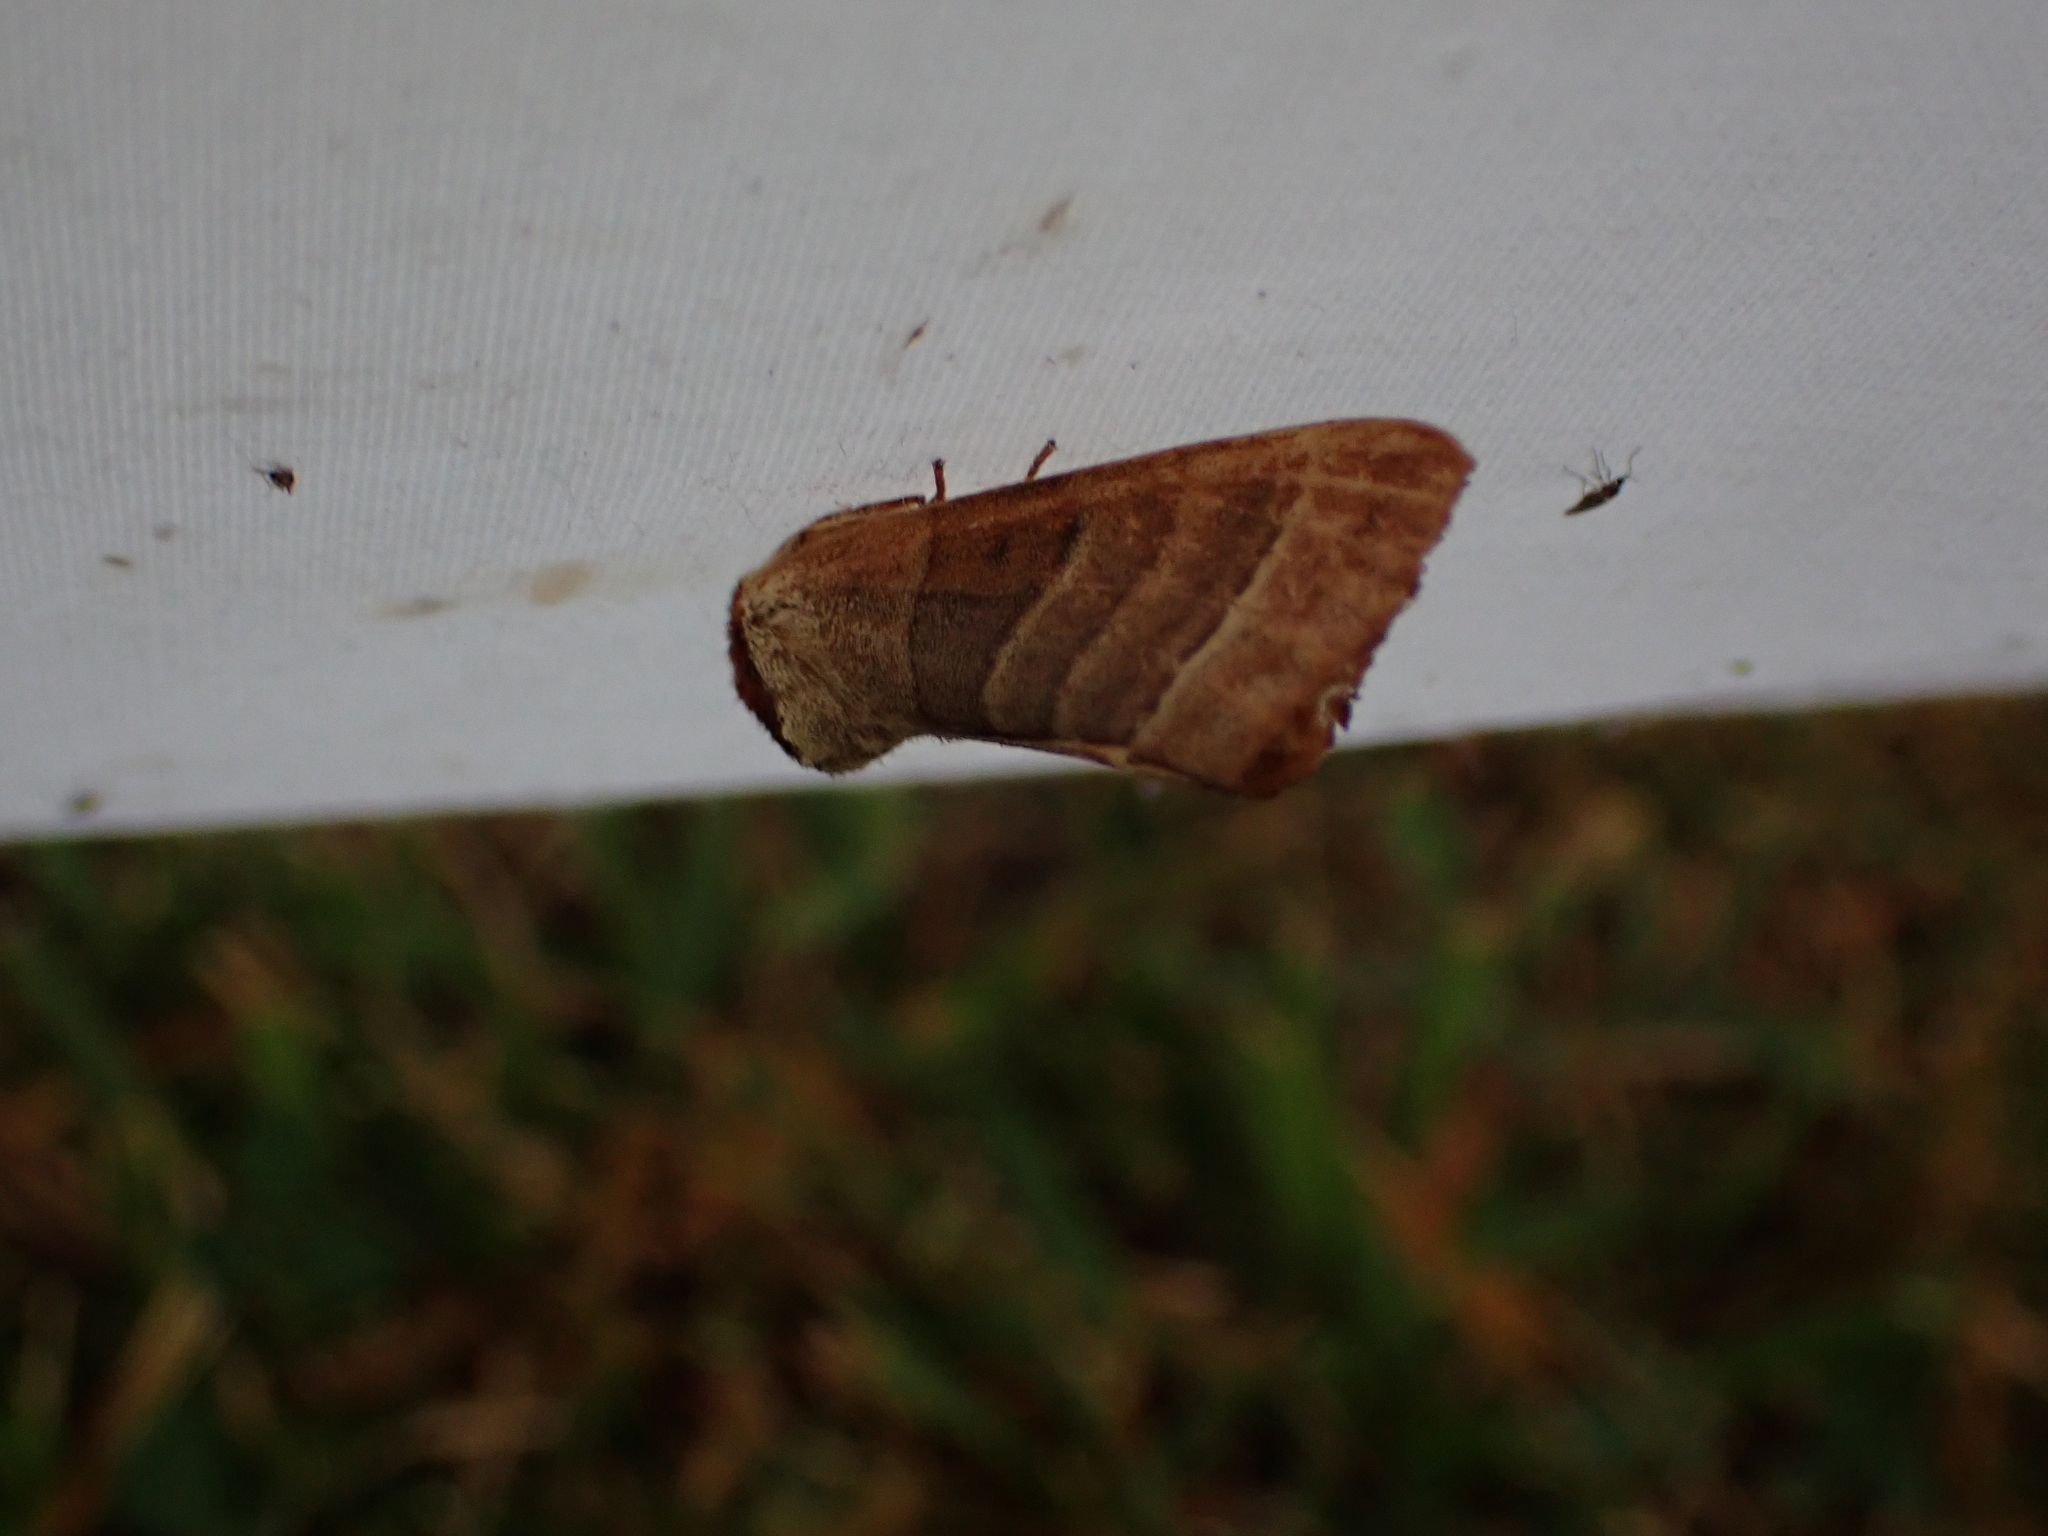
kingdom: Animalia
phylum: Arthropoda
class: Insecta
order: Lepidoptera
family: Notodontidae
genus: Datana
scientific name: Datana integerrima
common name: Walnut caterpillar
